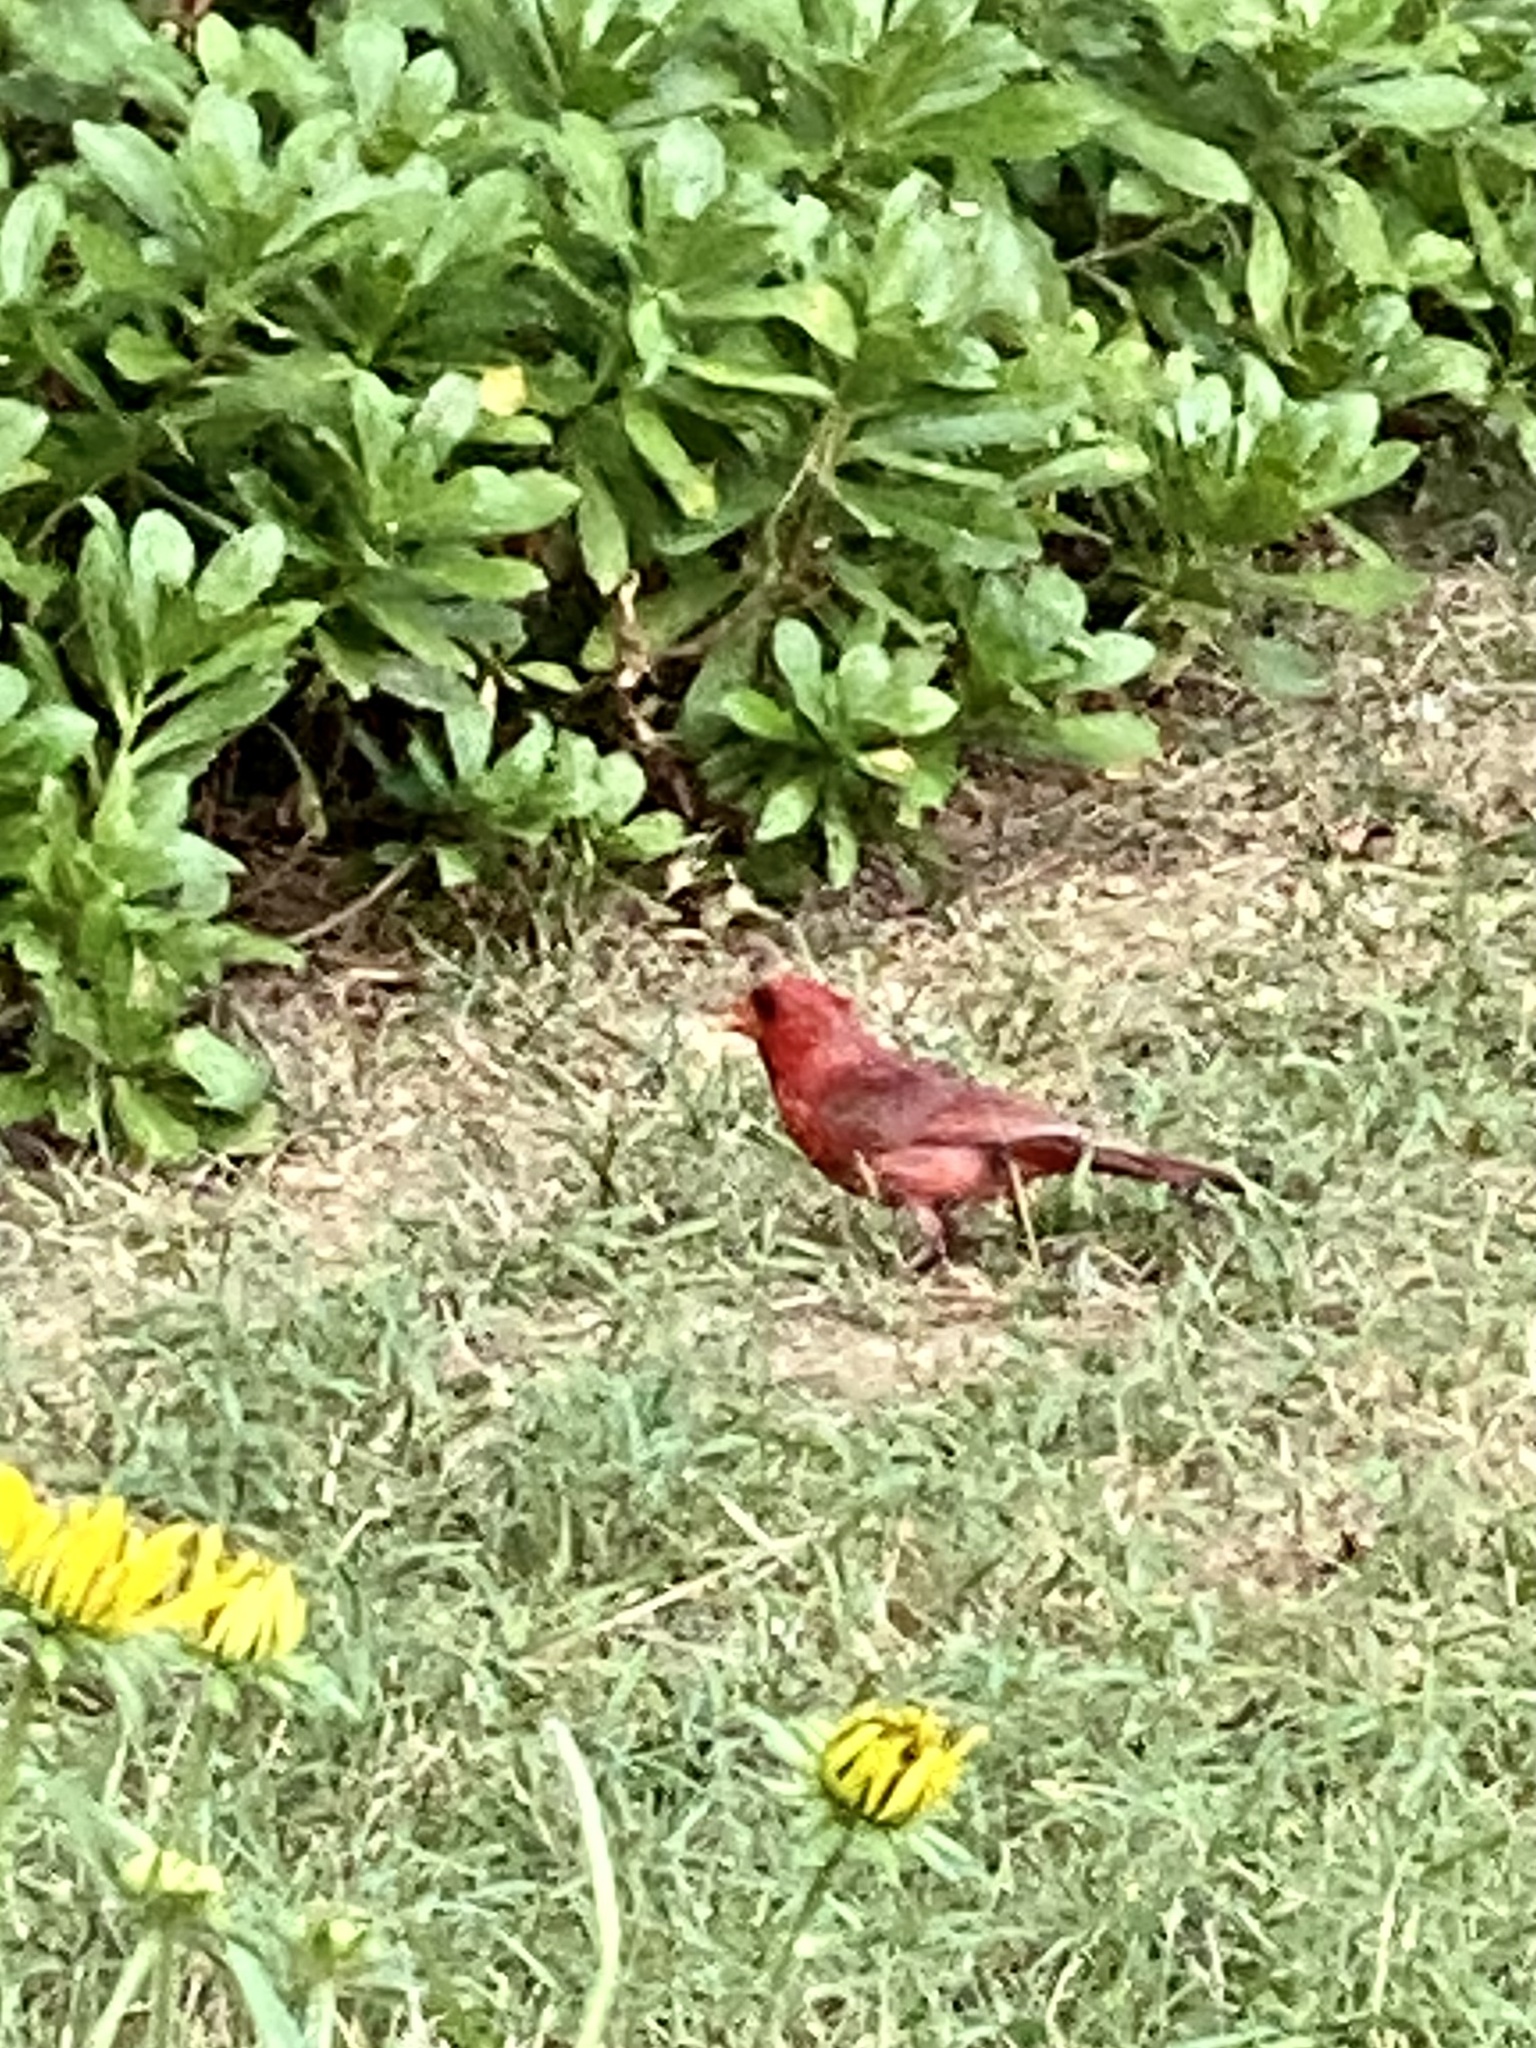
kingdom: Animalia
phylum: Chordata
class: Aves
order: Passeriformes
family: Cardinalidae
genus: Cardinalis
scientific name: Cardinalis cardinalis
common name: Northern cardinal
